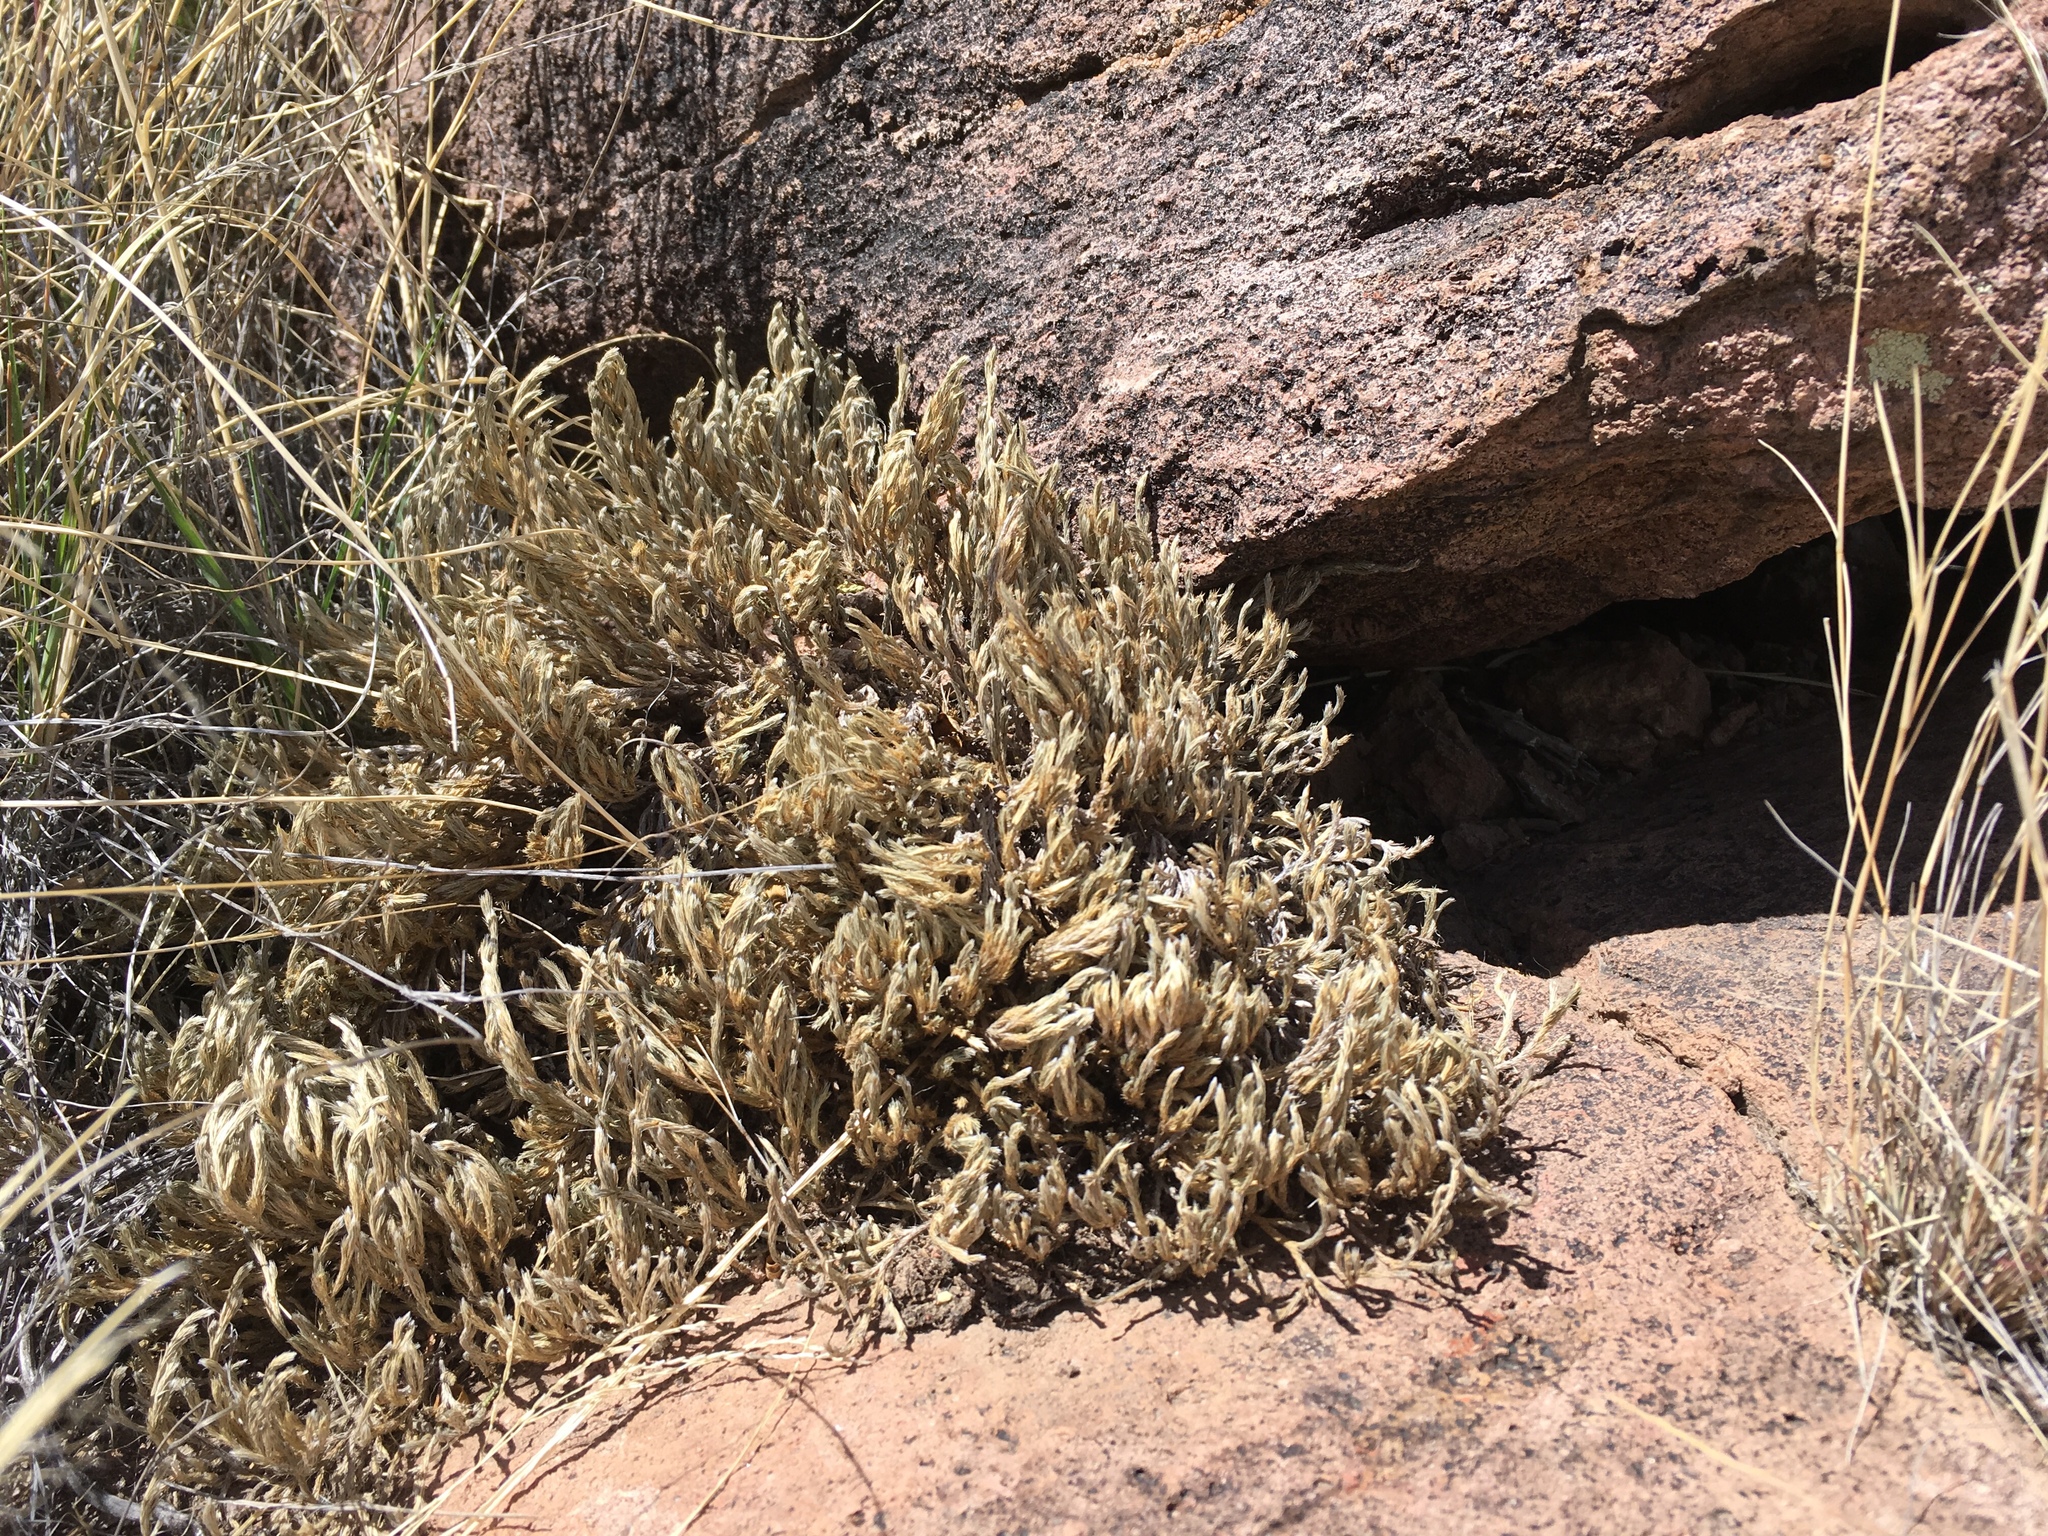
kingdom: Plantae
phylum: Tracheophyta
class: Lycopodiopsida
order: Selaginellales
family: Selaginellaceae
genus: Selaginella
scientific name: Selaginella rupincola
